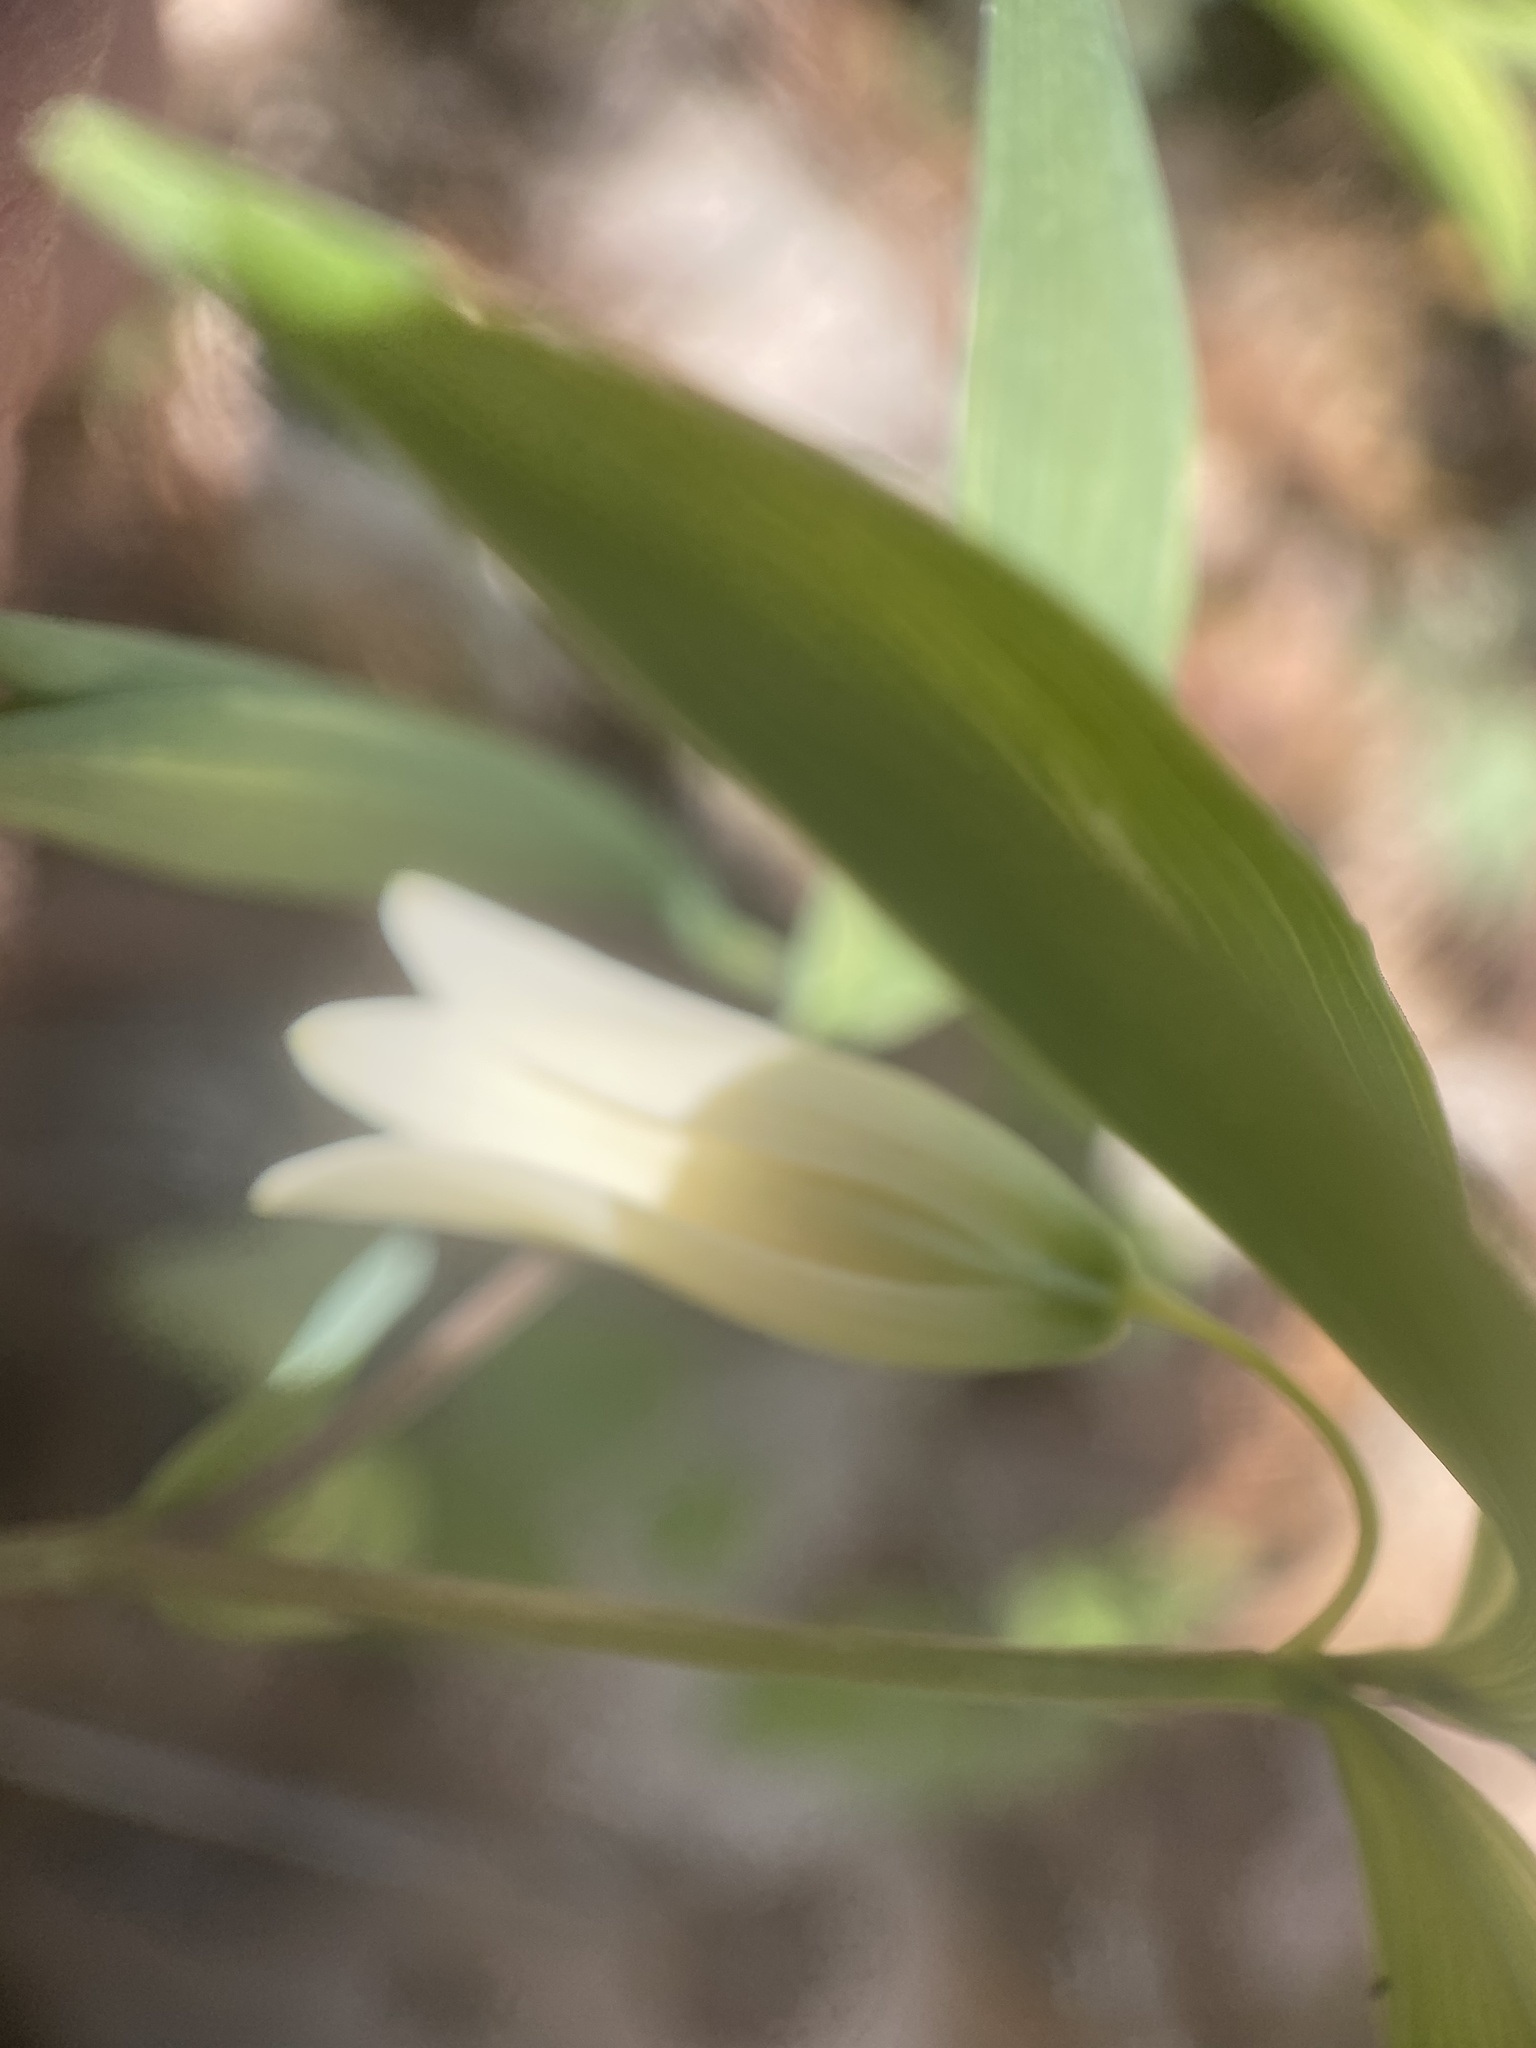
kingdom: Plantae
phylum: Tracheophyta
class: Liliopsida
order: Liliales
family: Colchicaceae
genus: Uvularia
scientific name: Uvularia sessilifolia
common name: Straw-lily
